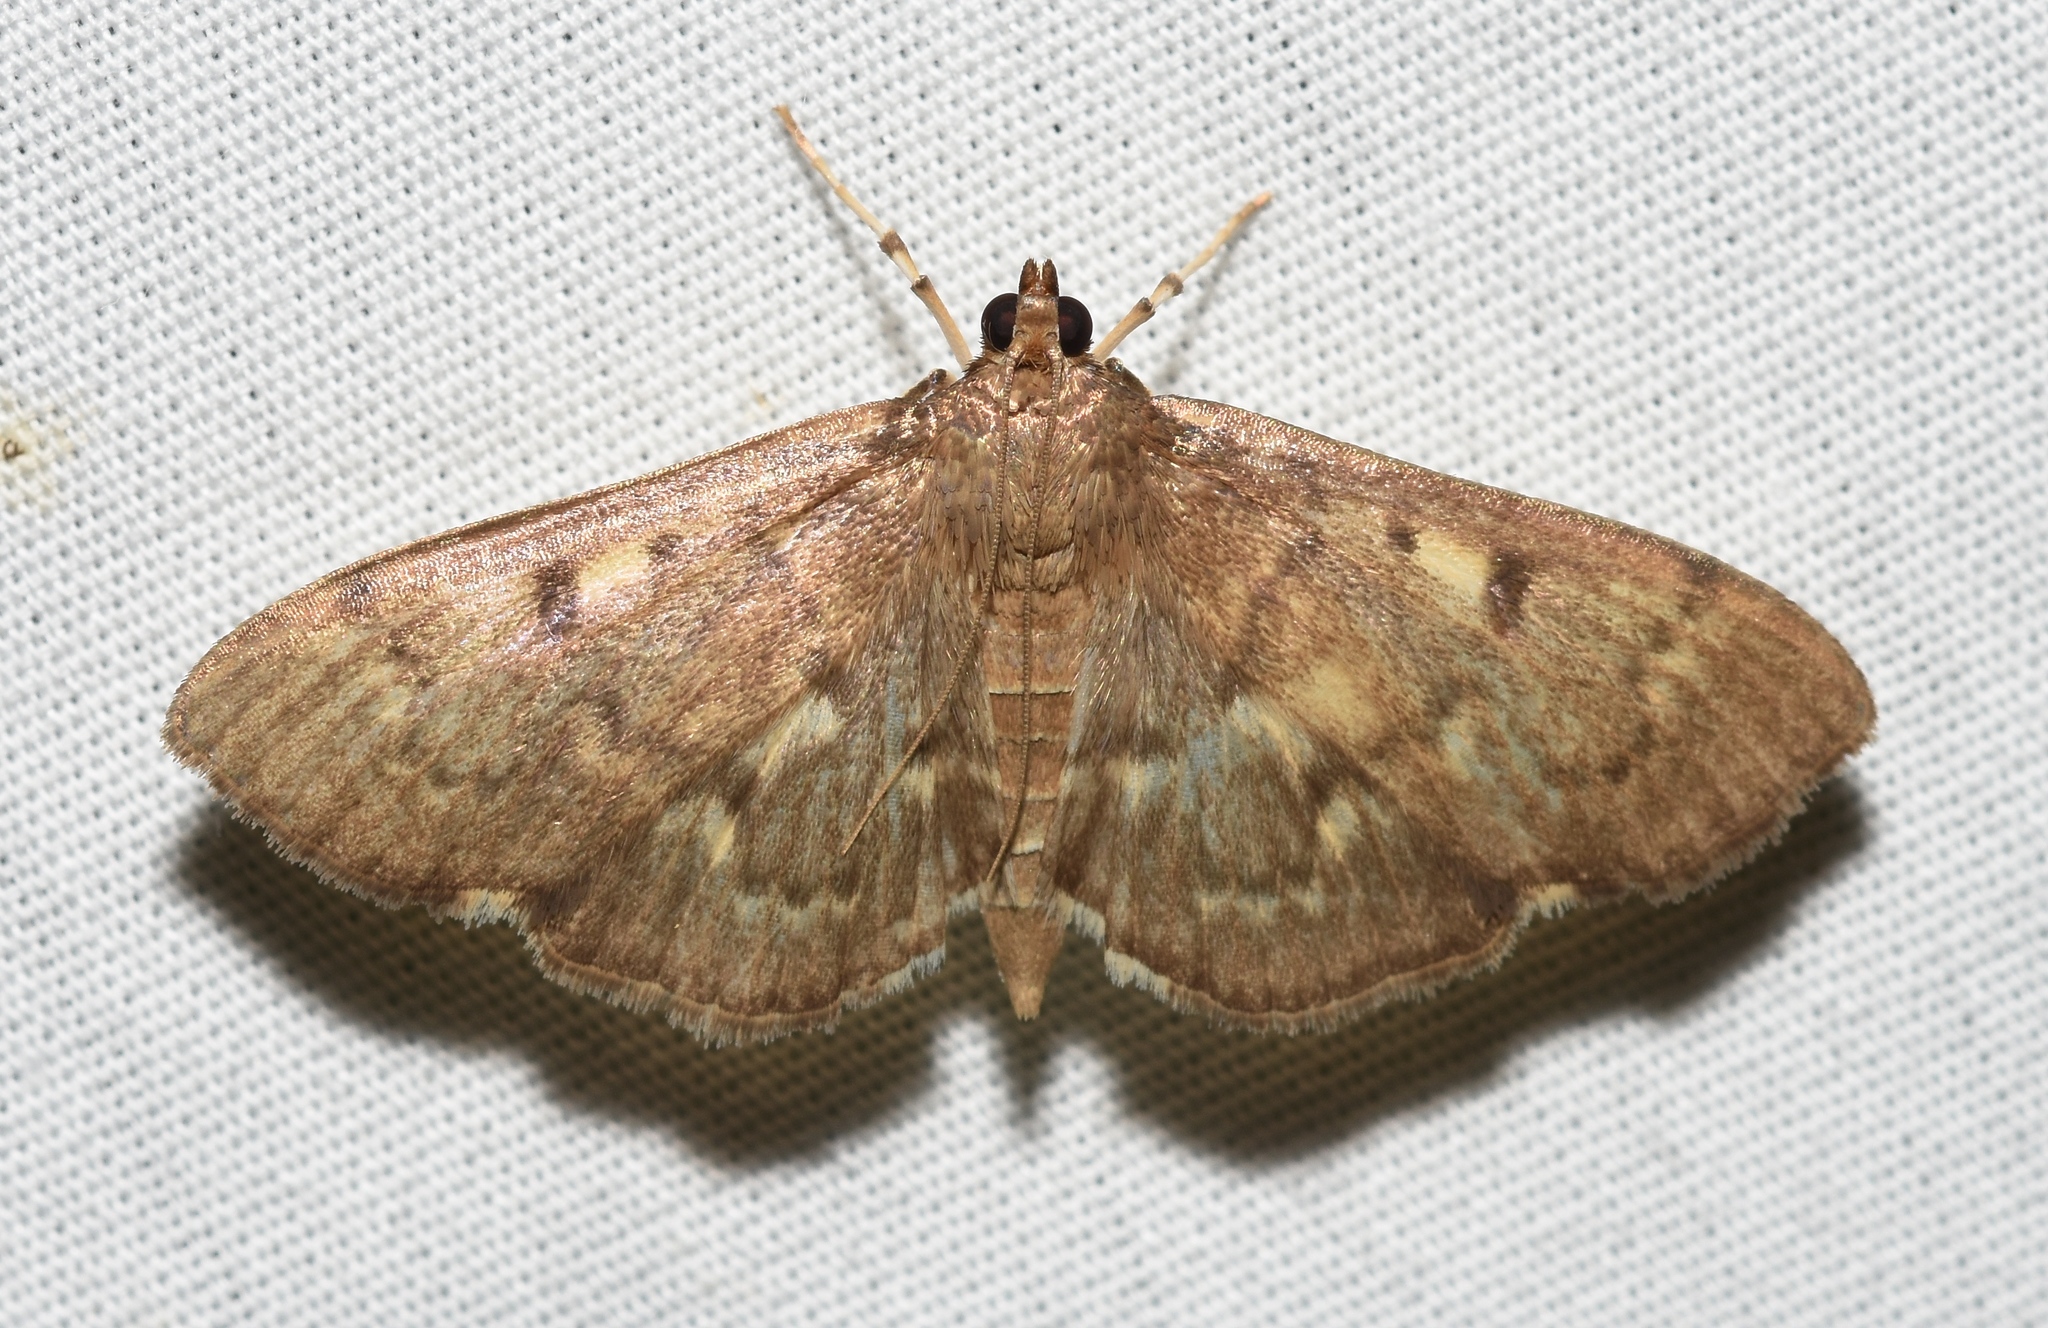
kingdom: Animalia
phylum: Arthropoda
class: Insecta
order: Lepidoptera
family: Crambidae
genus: Herpetogramma
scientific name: Herpetogramma aeglealis
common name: Serpentine webworm moth
